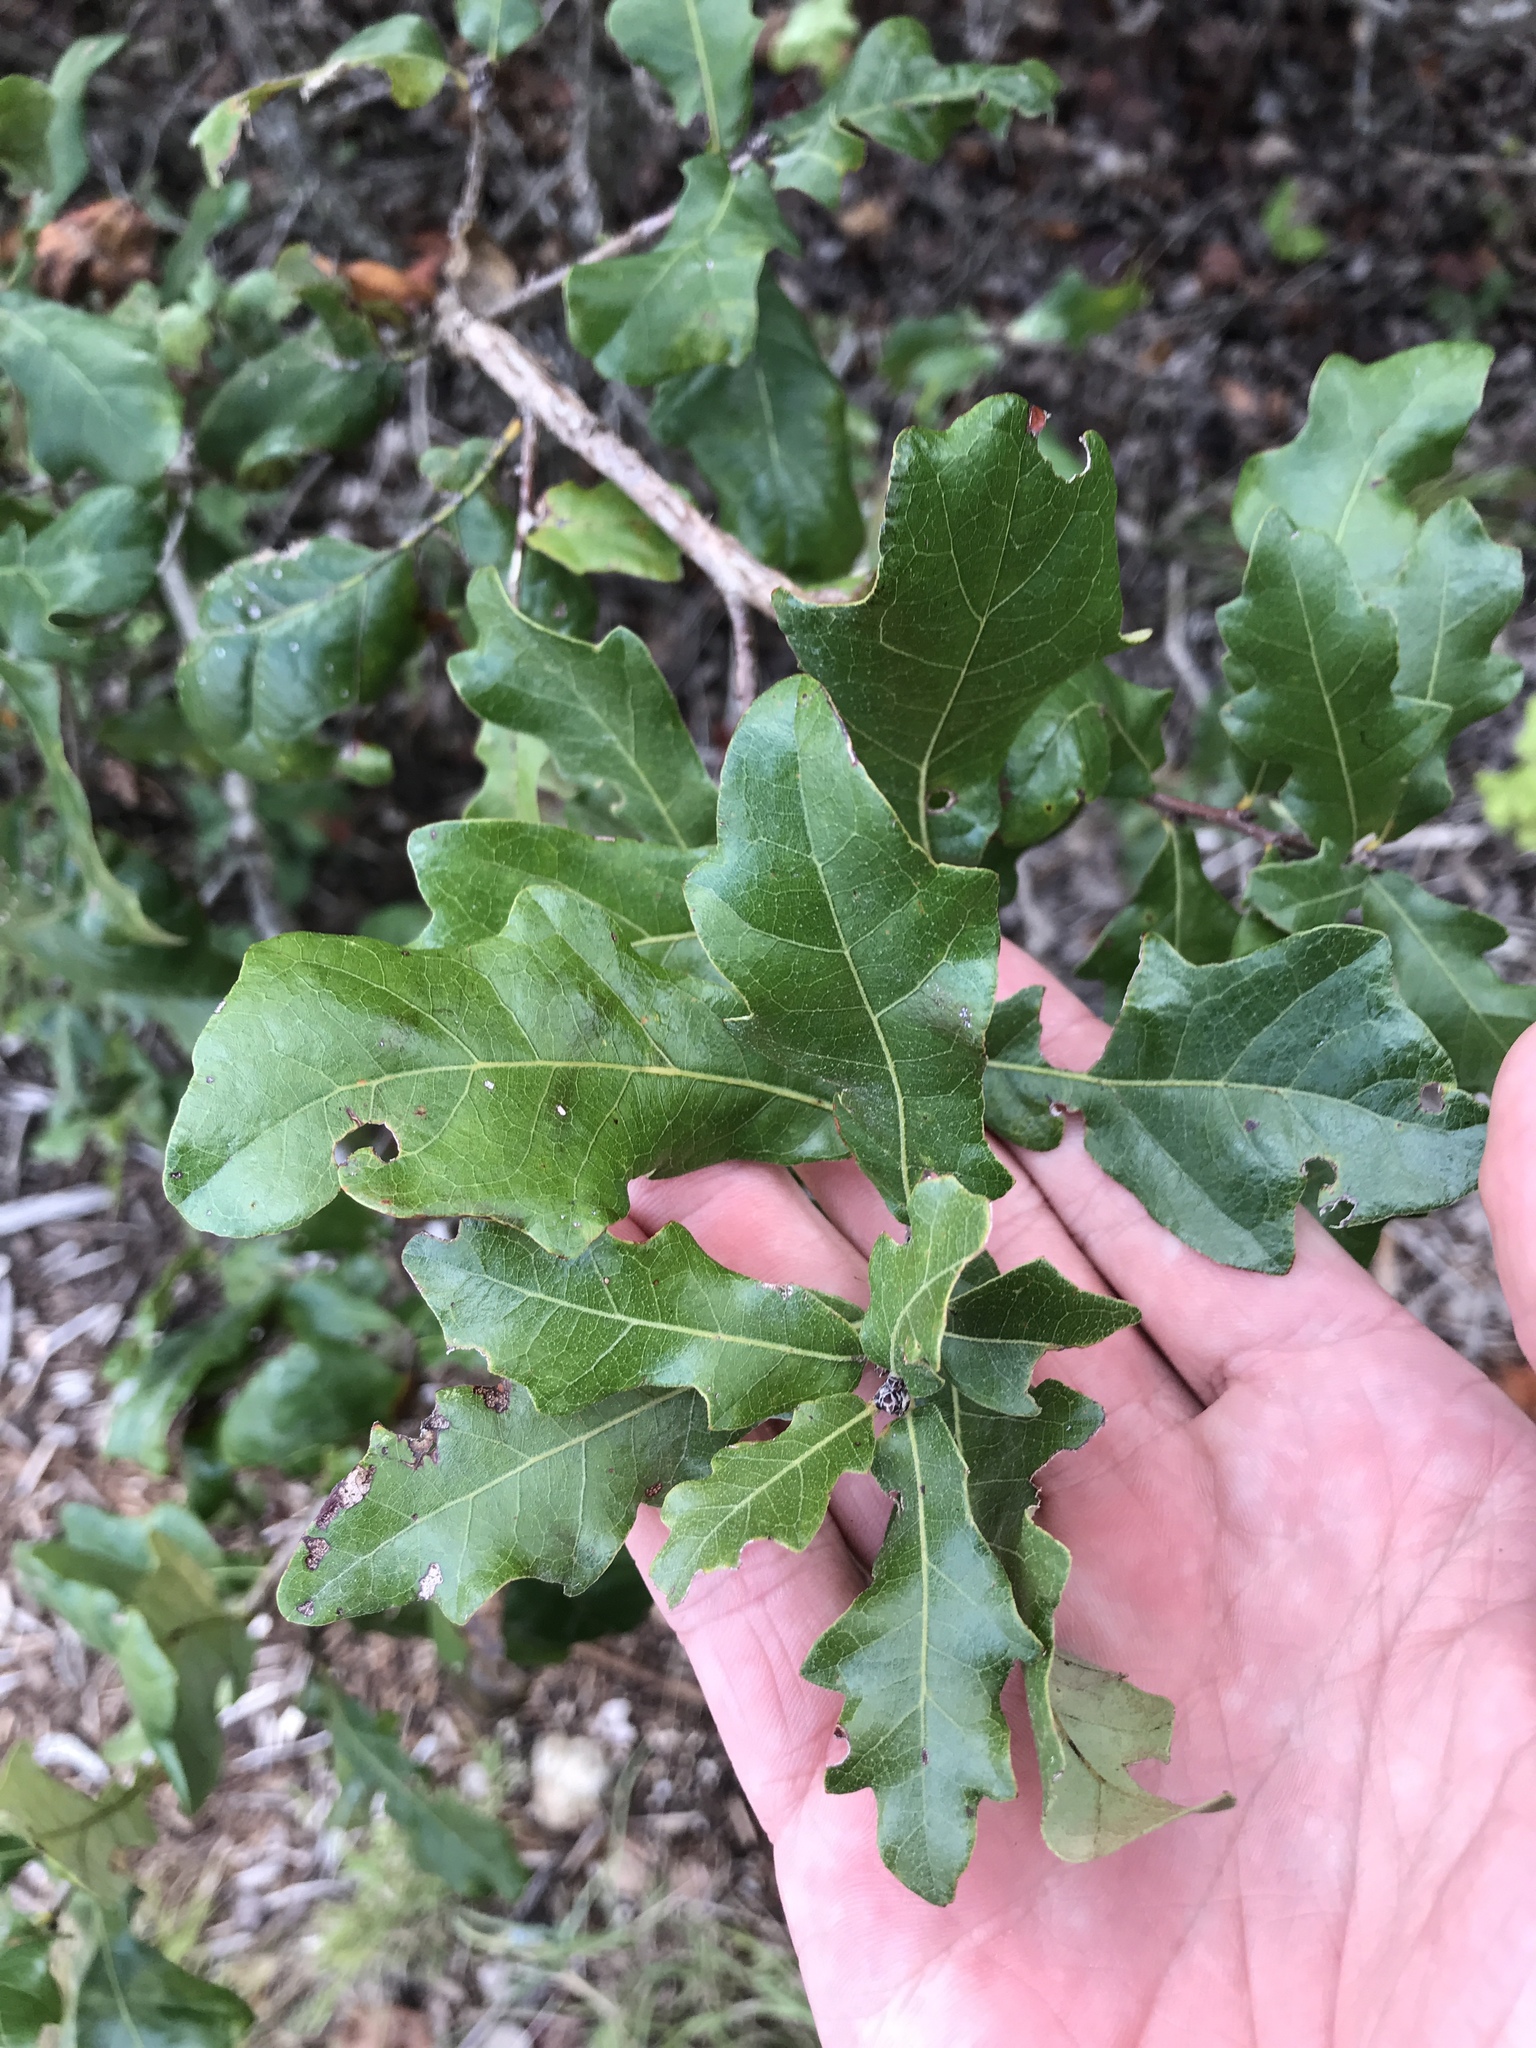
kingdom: Plantae
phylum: Tracheophyta
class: Magnoliopsida
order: Fagales
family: Fagaceae
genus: Quercus
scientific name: Quercus sinuata
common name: Durand oak
